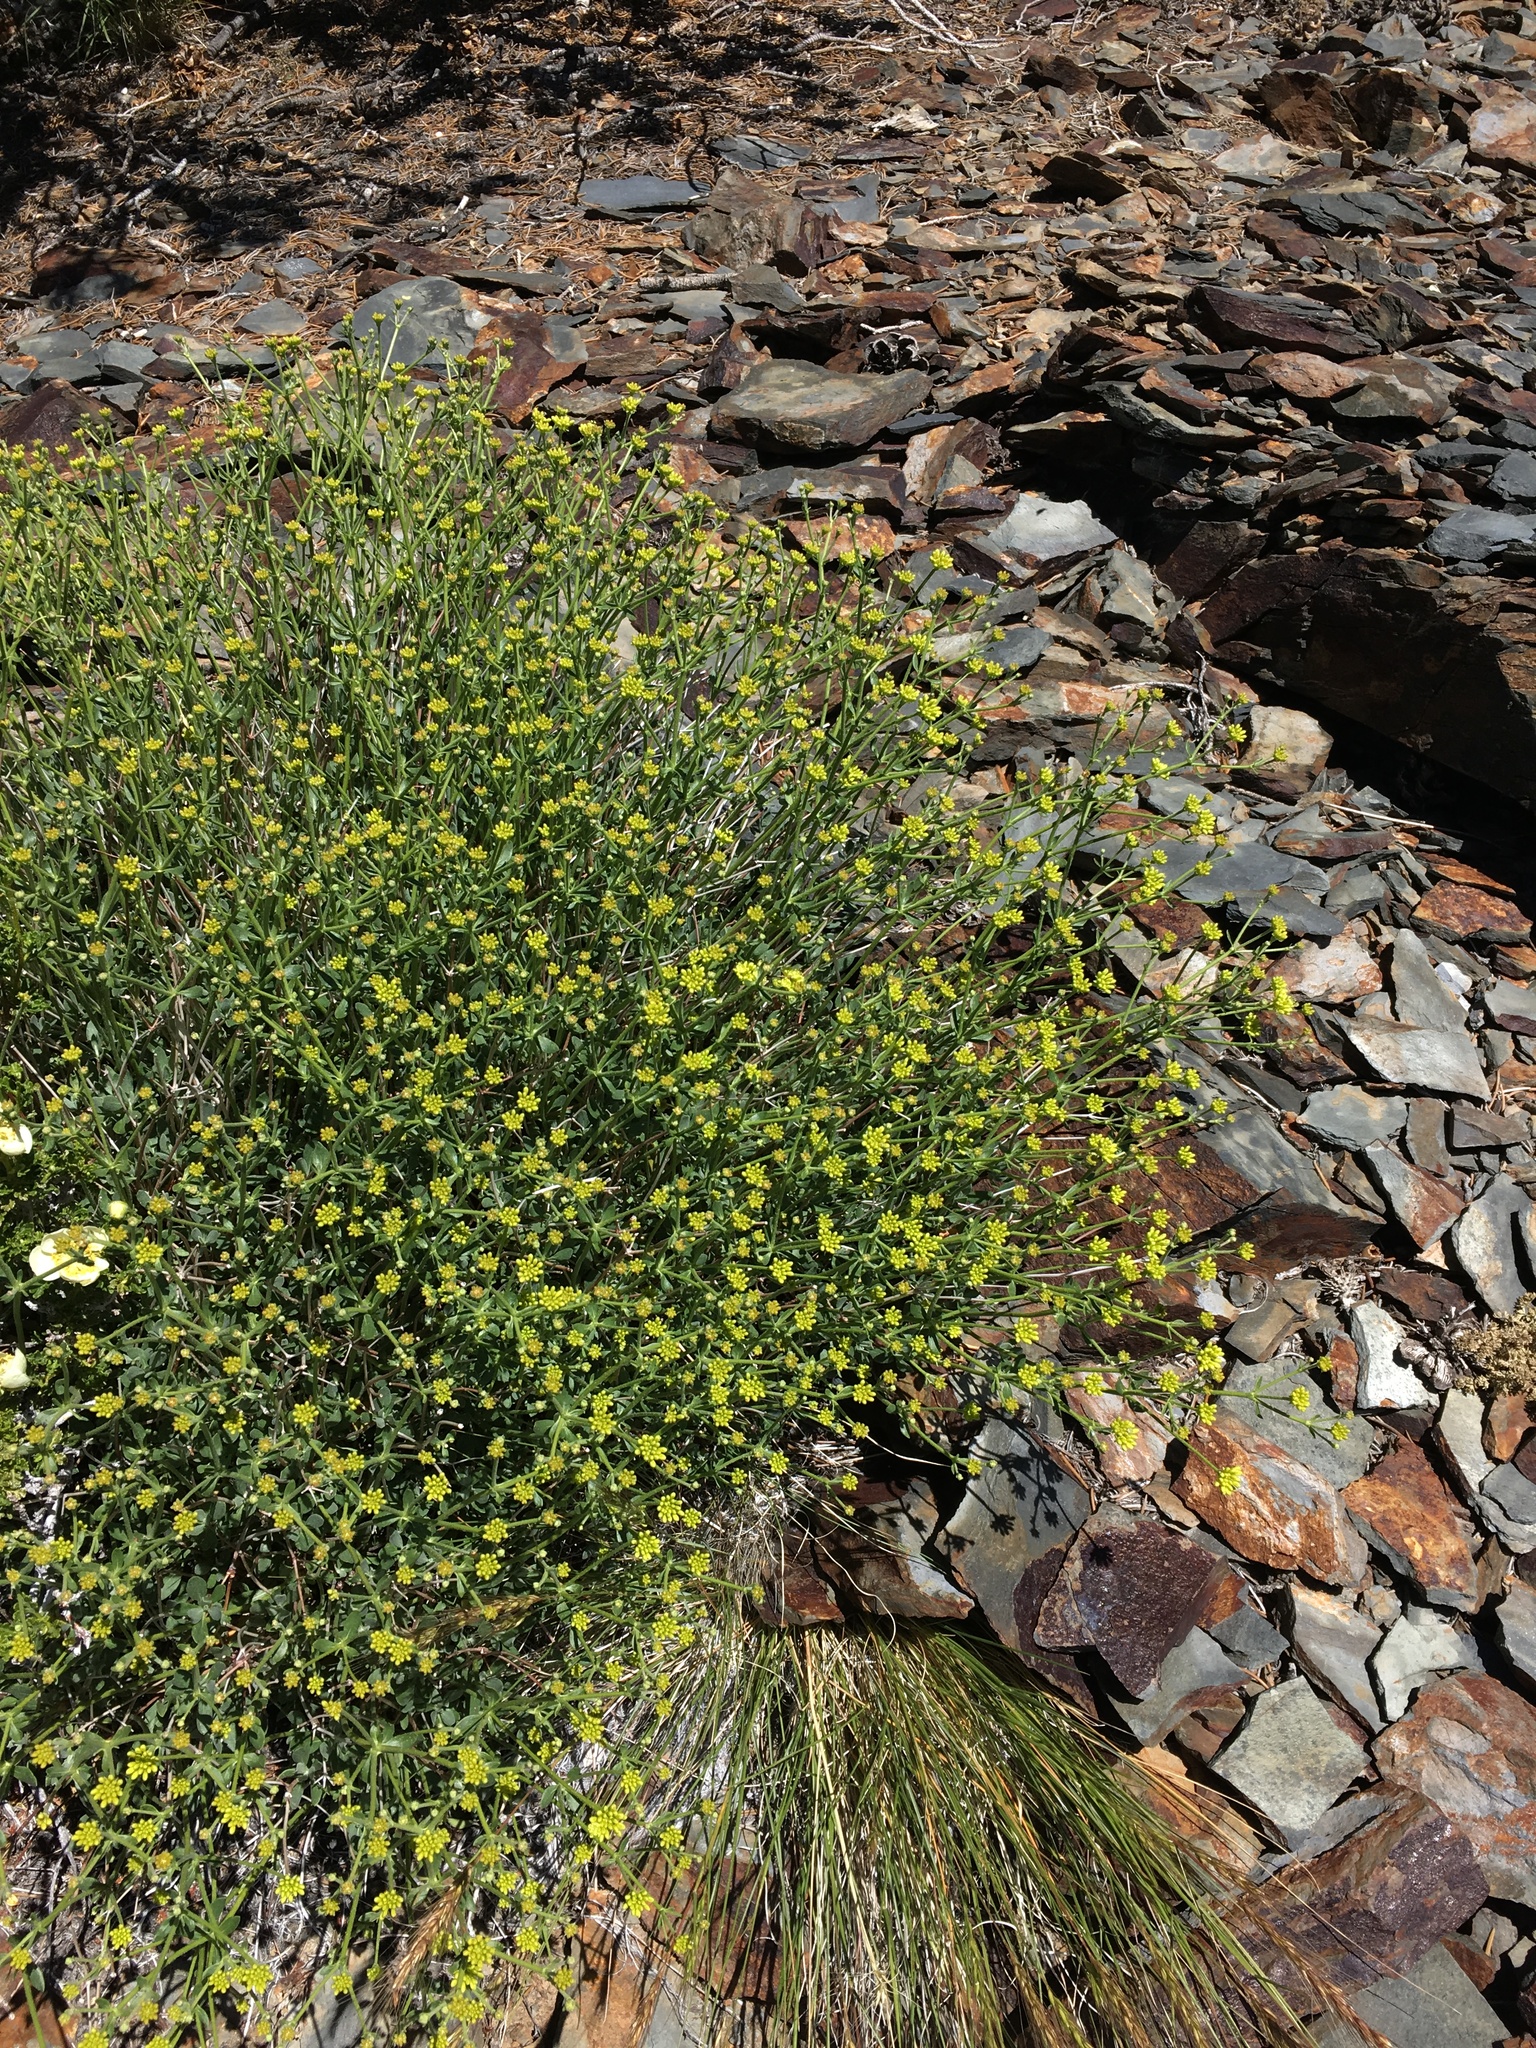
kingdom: Plantae
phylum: Tracheophyta
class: Magnoliopsida
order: Caryophyllales
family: Polygonaceae
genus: Eriogonum
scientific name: Eriogonum umbellatum
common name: Sulfur-buckwheat
